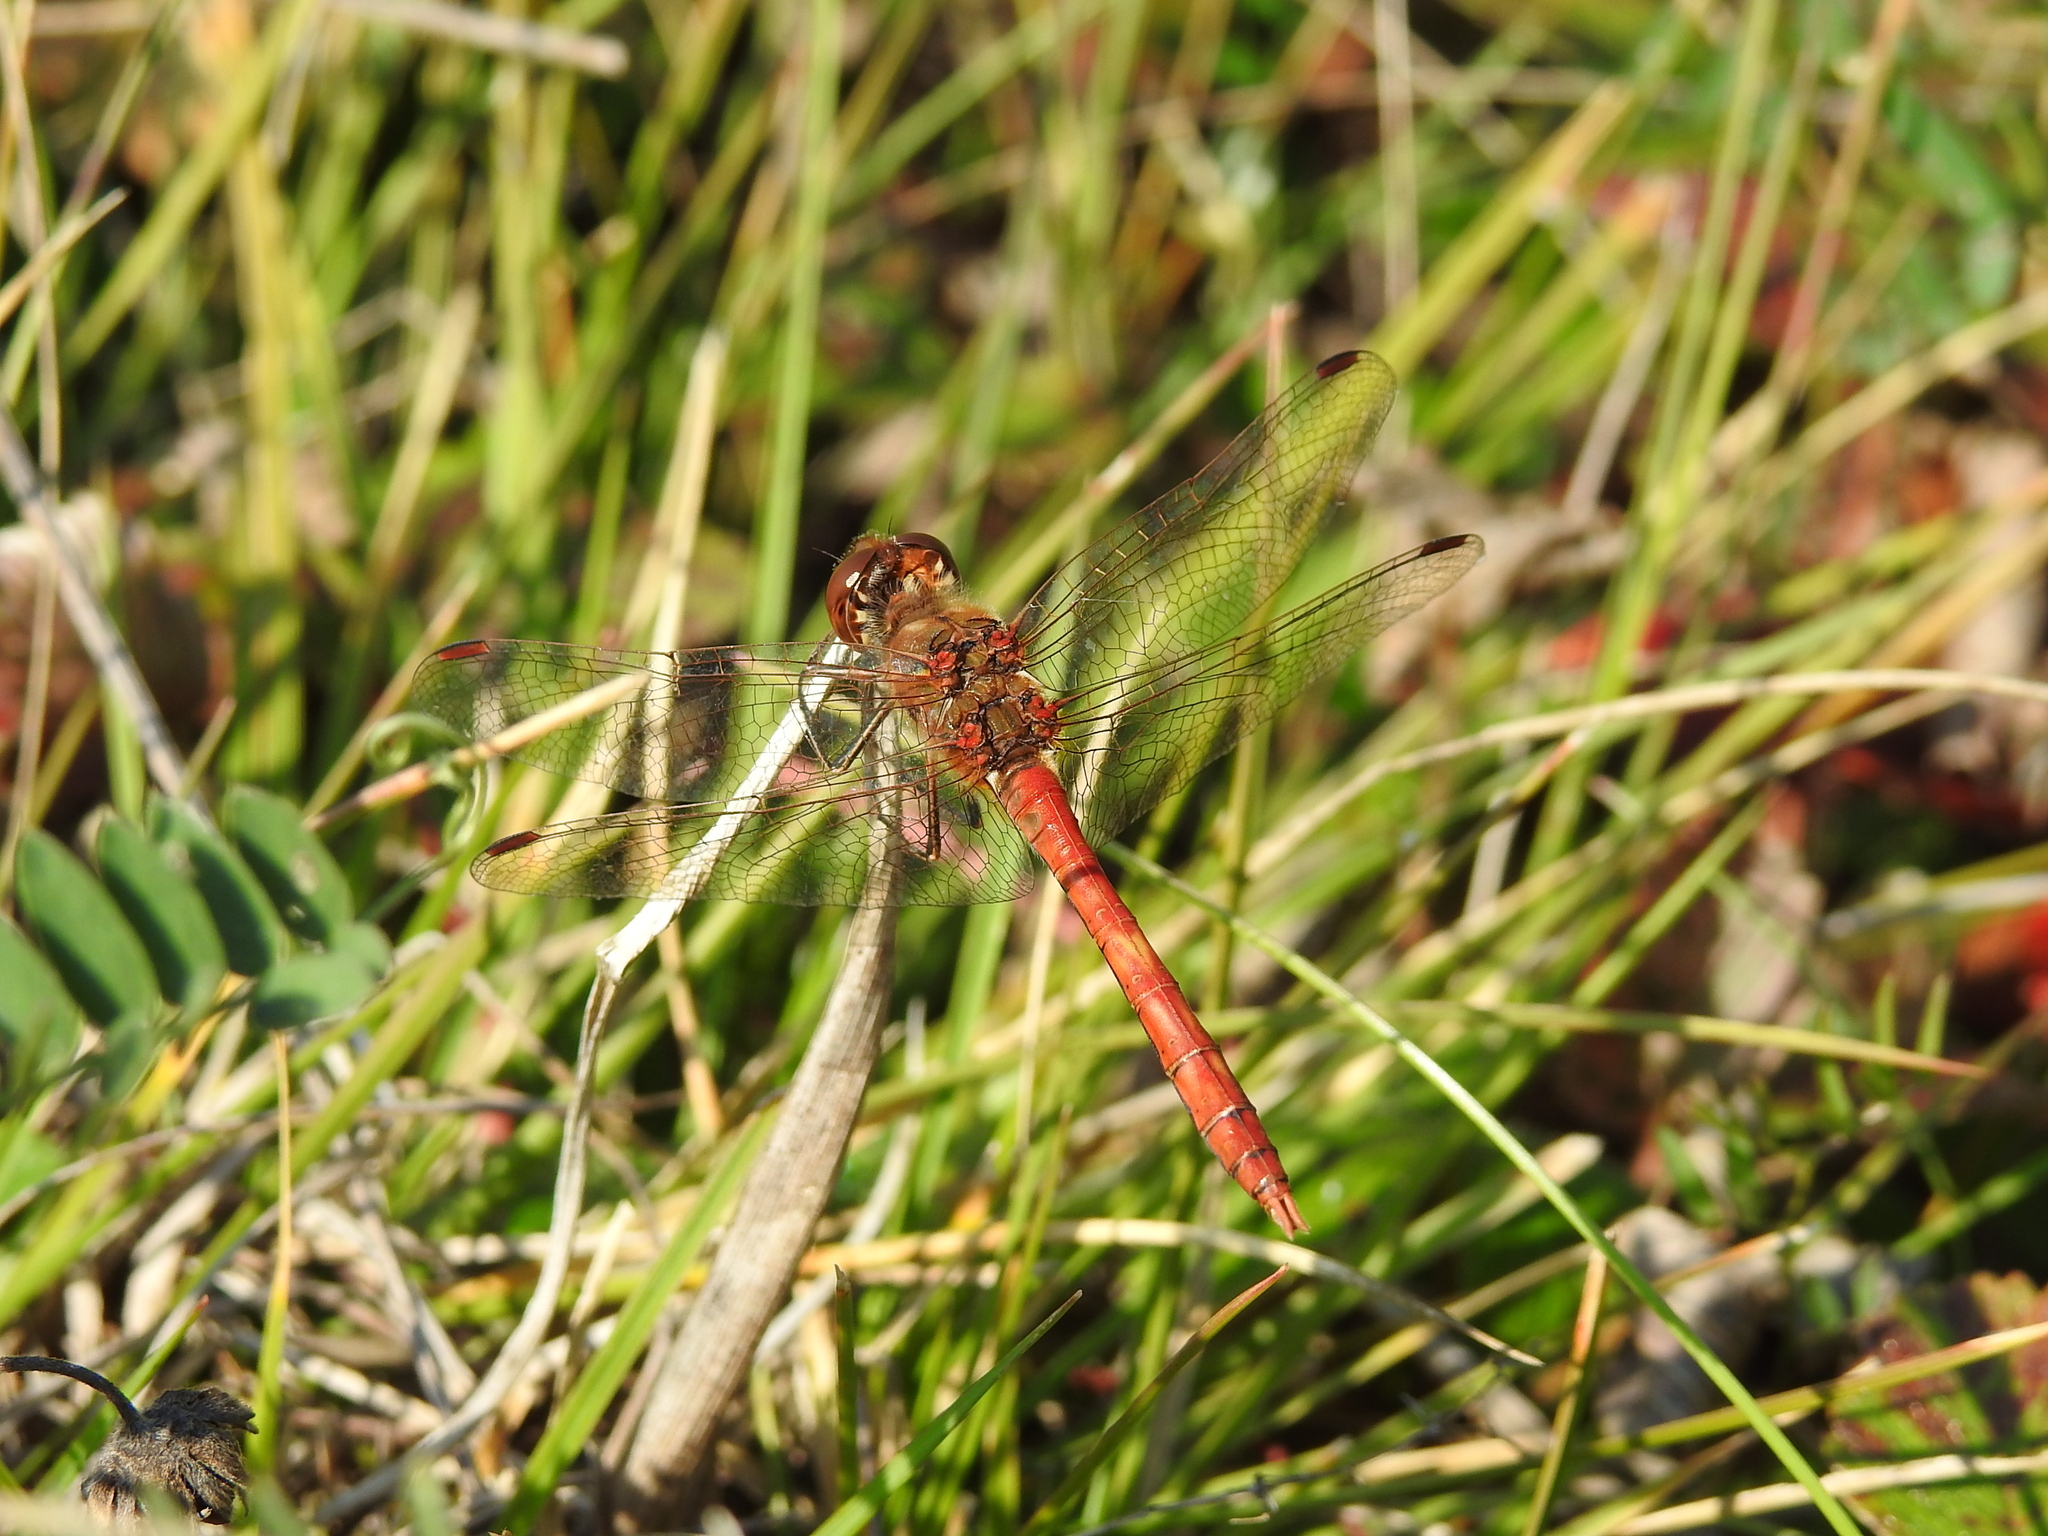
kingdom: Animalia
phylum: Arthropoda
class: Insecta
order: Odonata
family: Libellulidae
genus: Sympetrum
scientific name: Sympetrum vulgatum
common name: Vagrant darter
